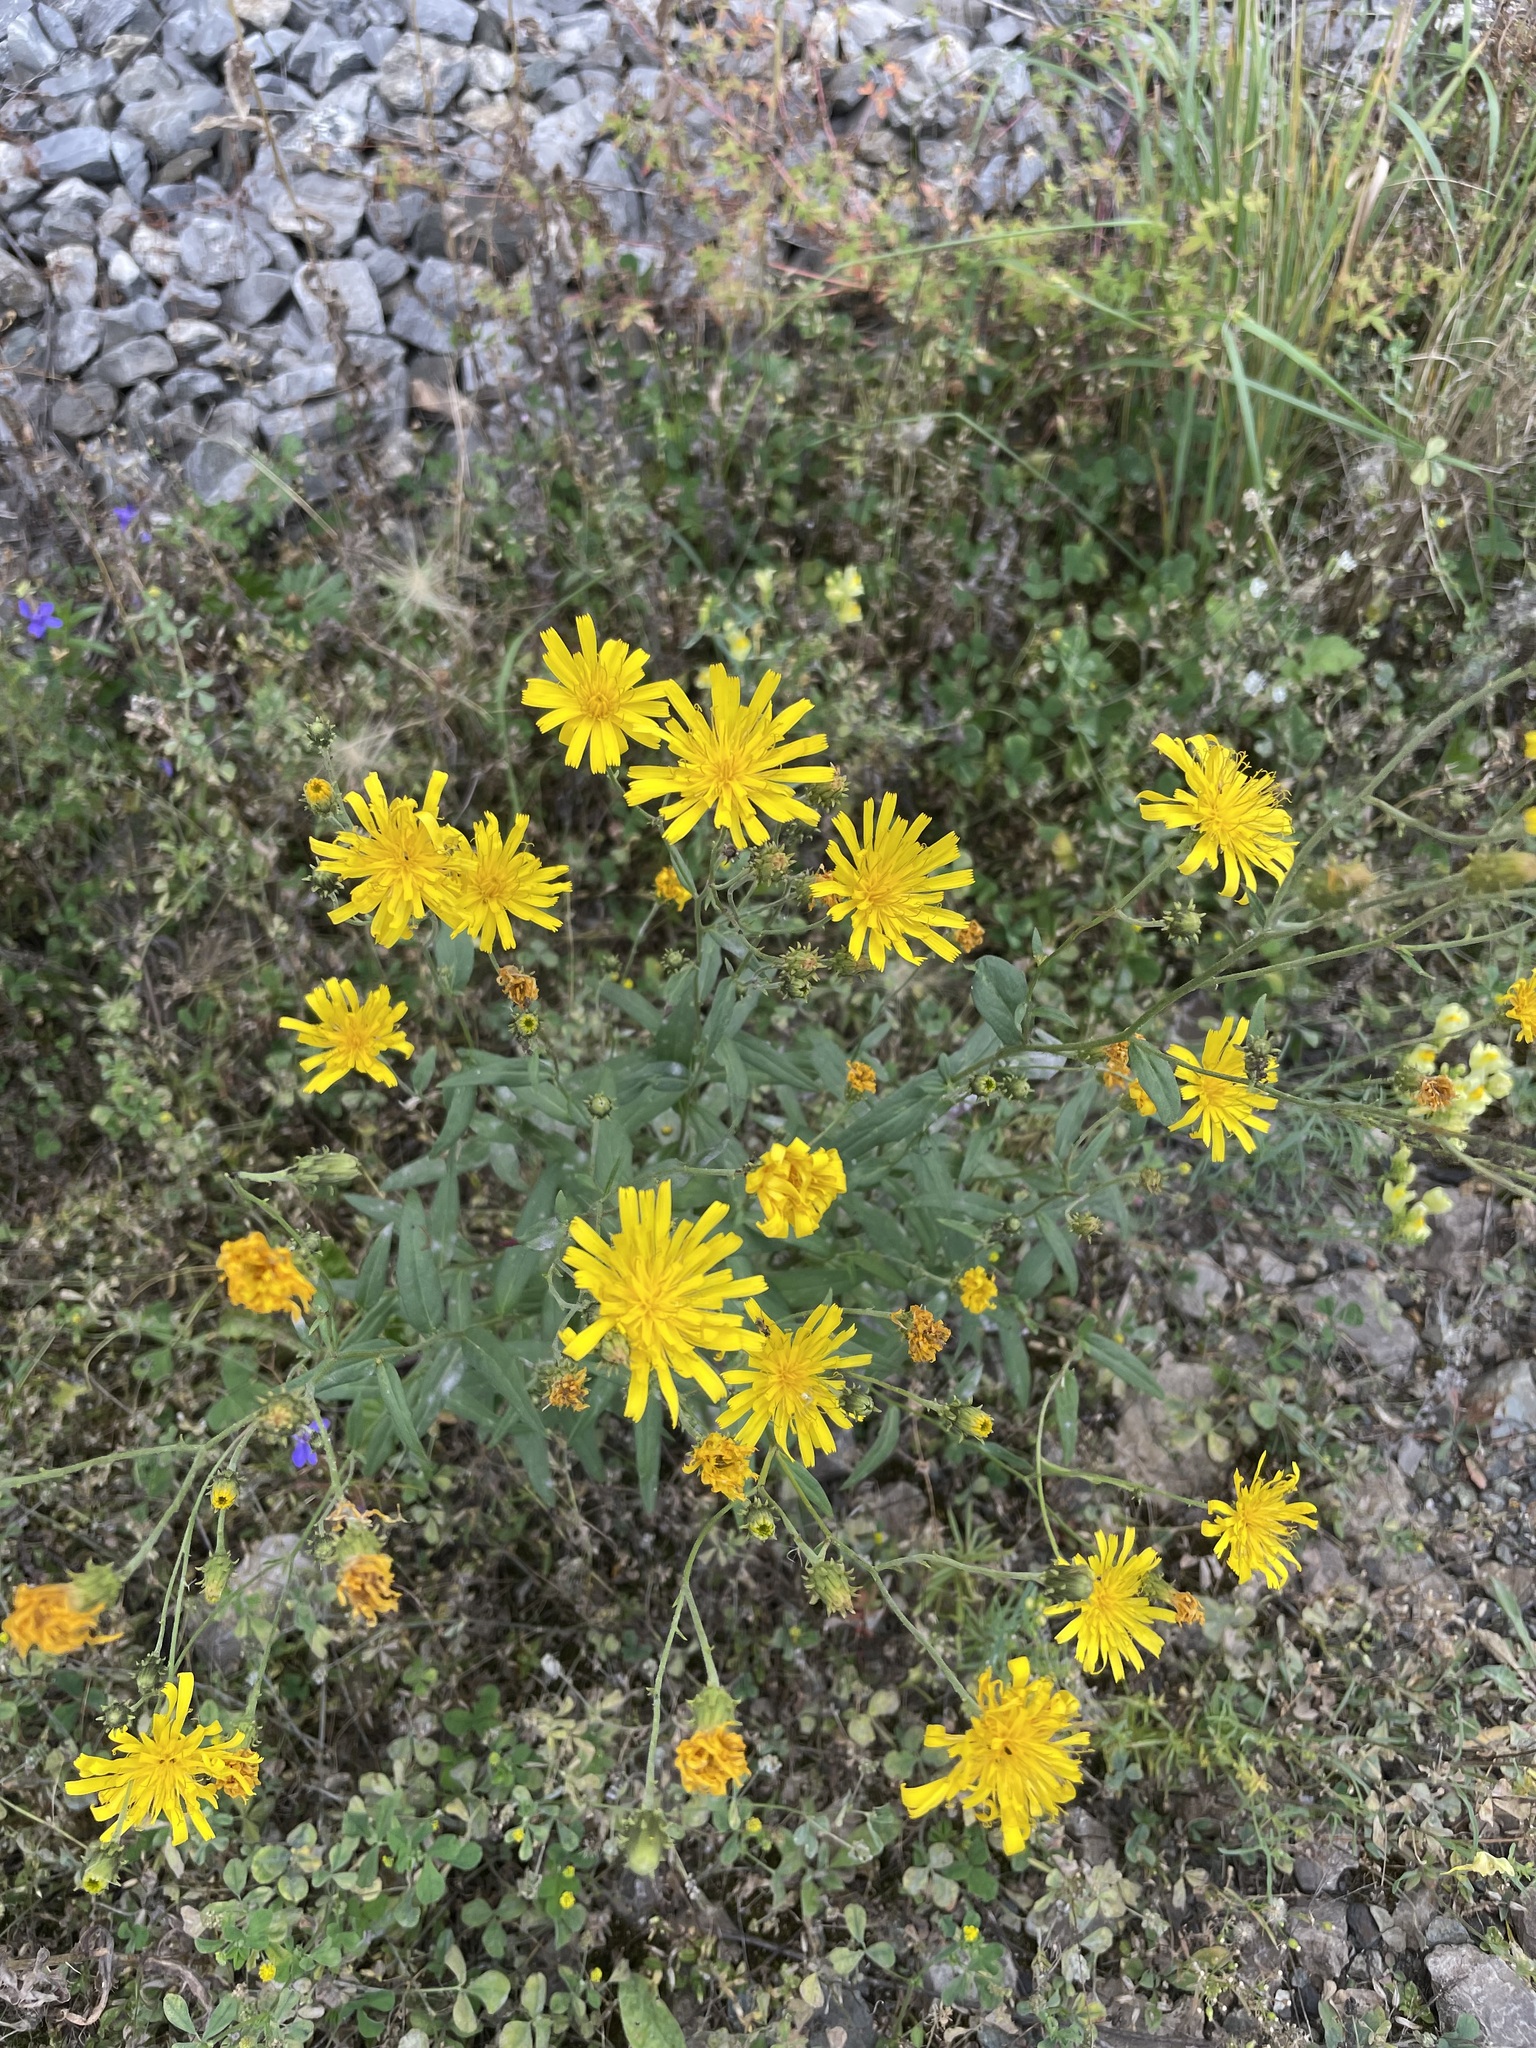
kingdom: Plantae
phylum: Tracheophyta
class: Magnoliopsida
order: Asterales
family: Asteraceae
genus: Hieracium
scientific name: Hieracium umbellatum
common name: Northern hawkweed
